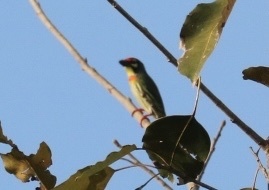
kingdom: Animalia
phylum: Chordata
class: Aves
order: Piciformes
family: Megalaimidae
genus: Psilopogon
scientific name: Psilopogon haemacephalus
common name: Coppersmith barbet
